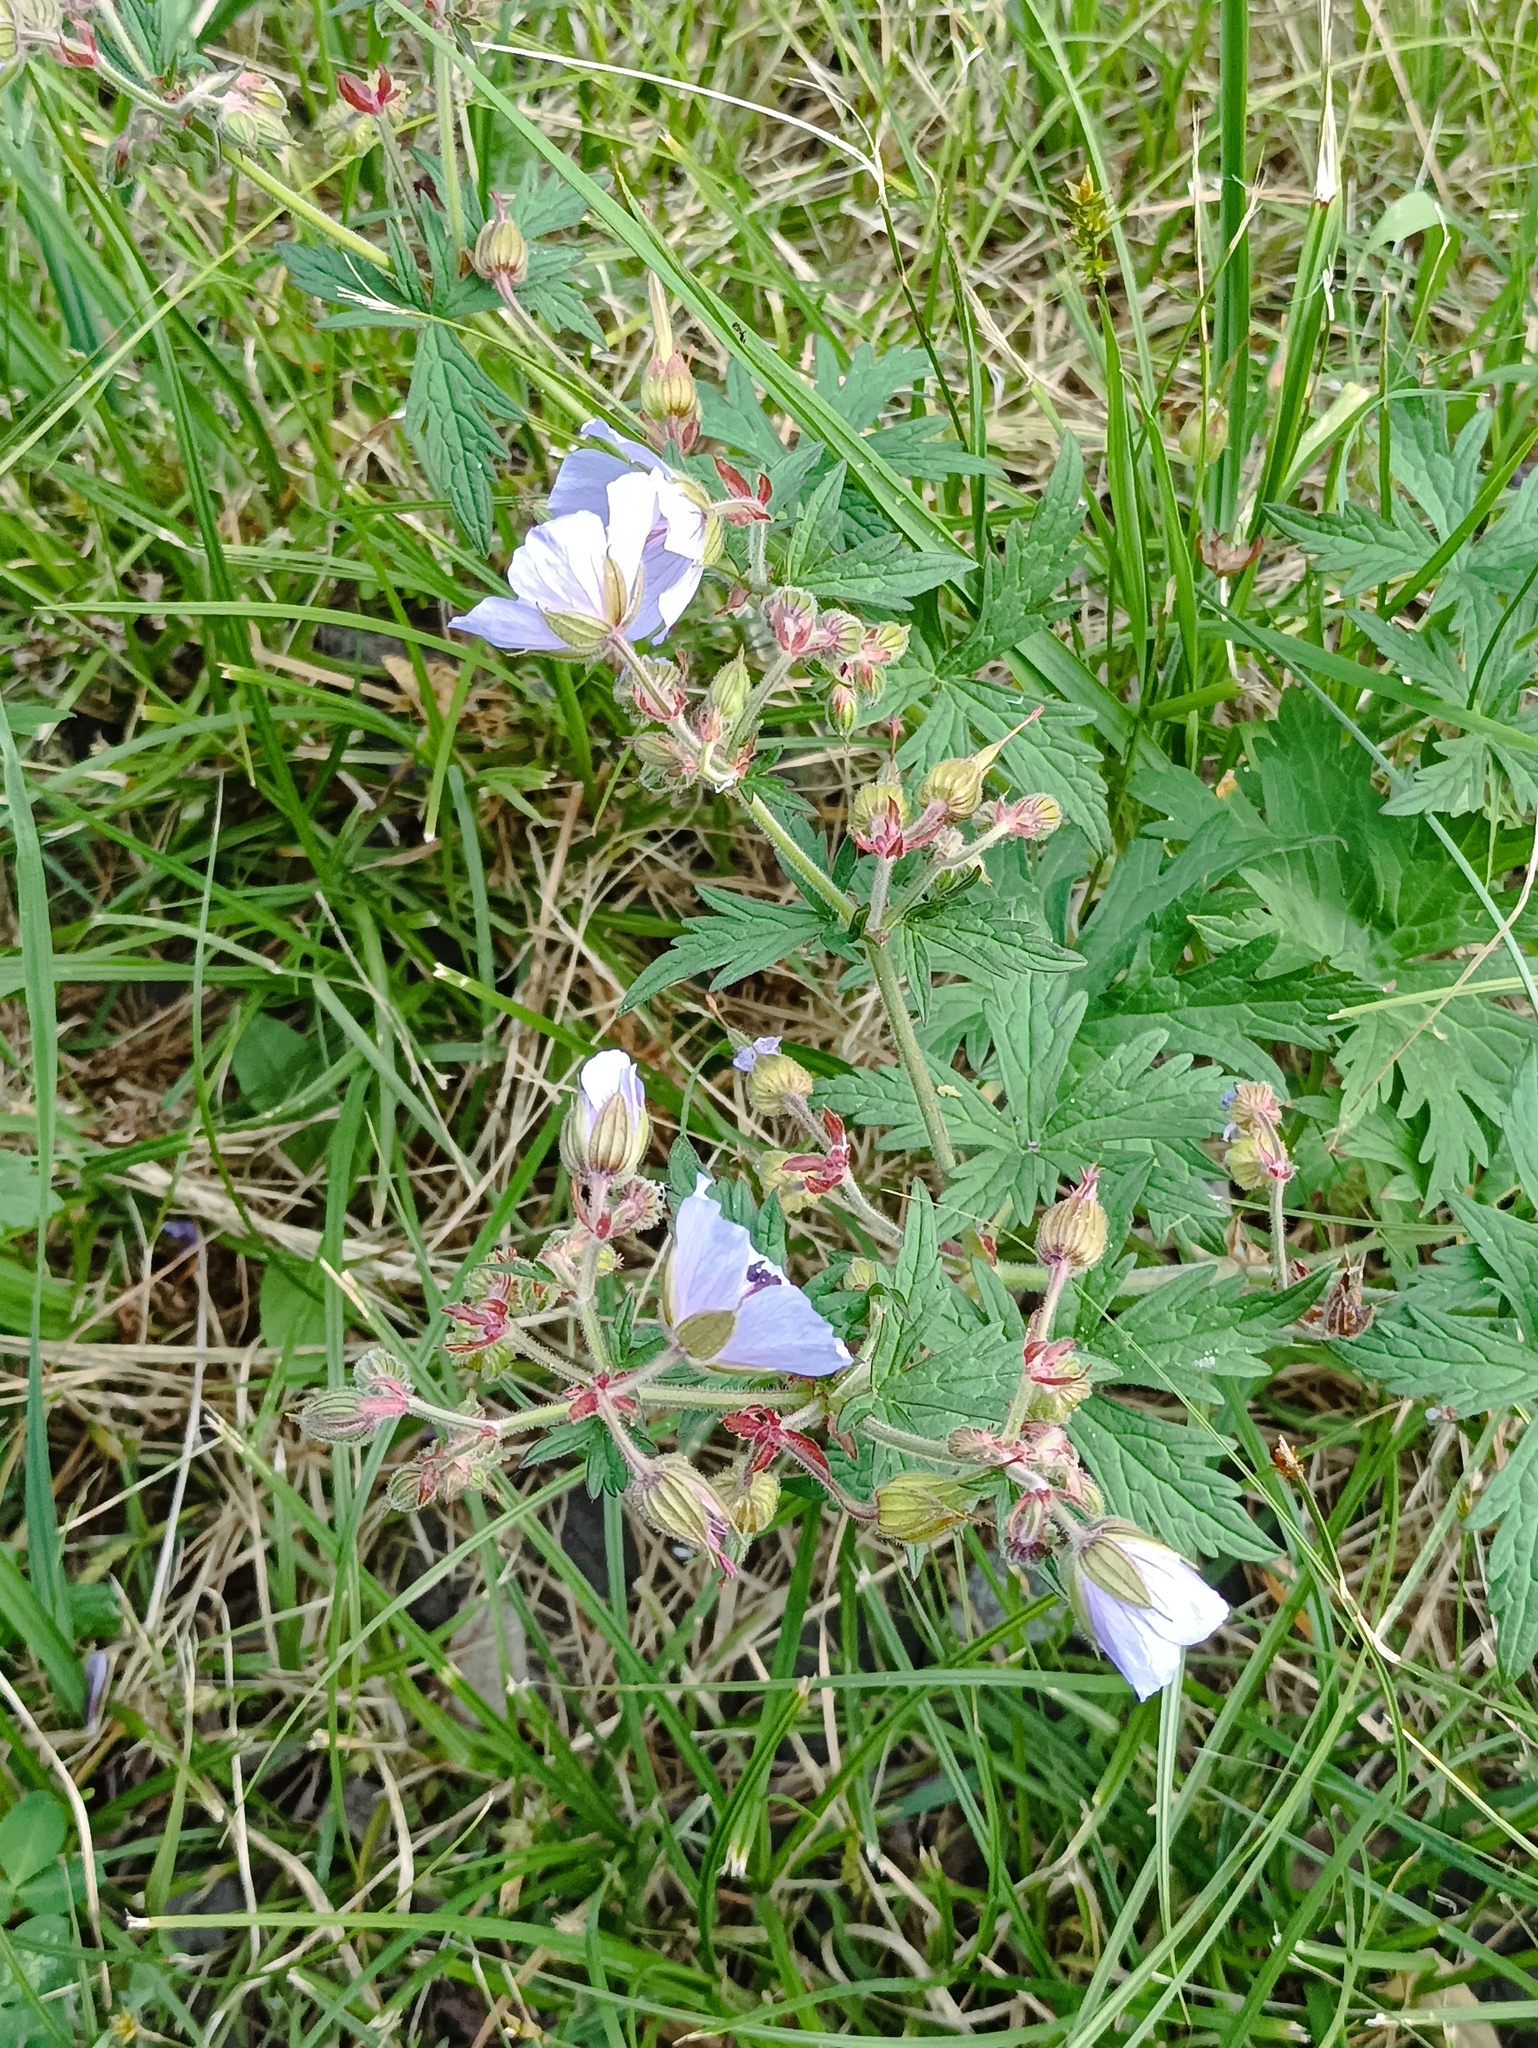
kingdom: Plantae
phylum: Tracheophyta
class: Magnoliopsida
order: Geraniales
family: Geraniaceae
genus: Geranium
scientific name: Geranium pratense
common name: Meadow crane's-bill
